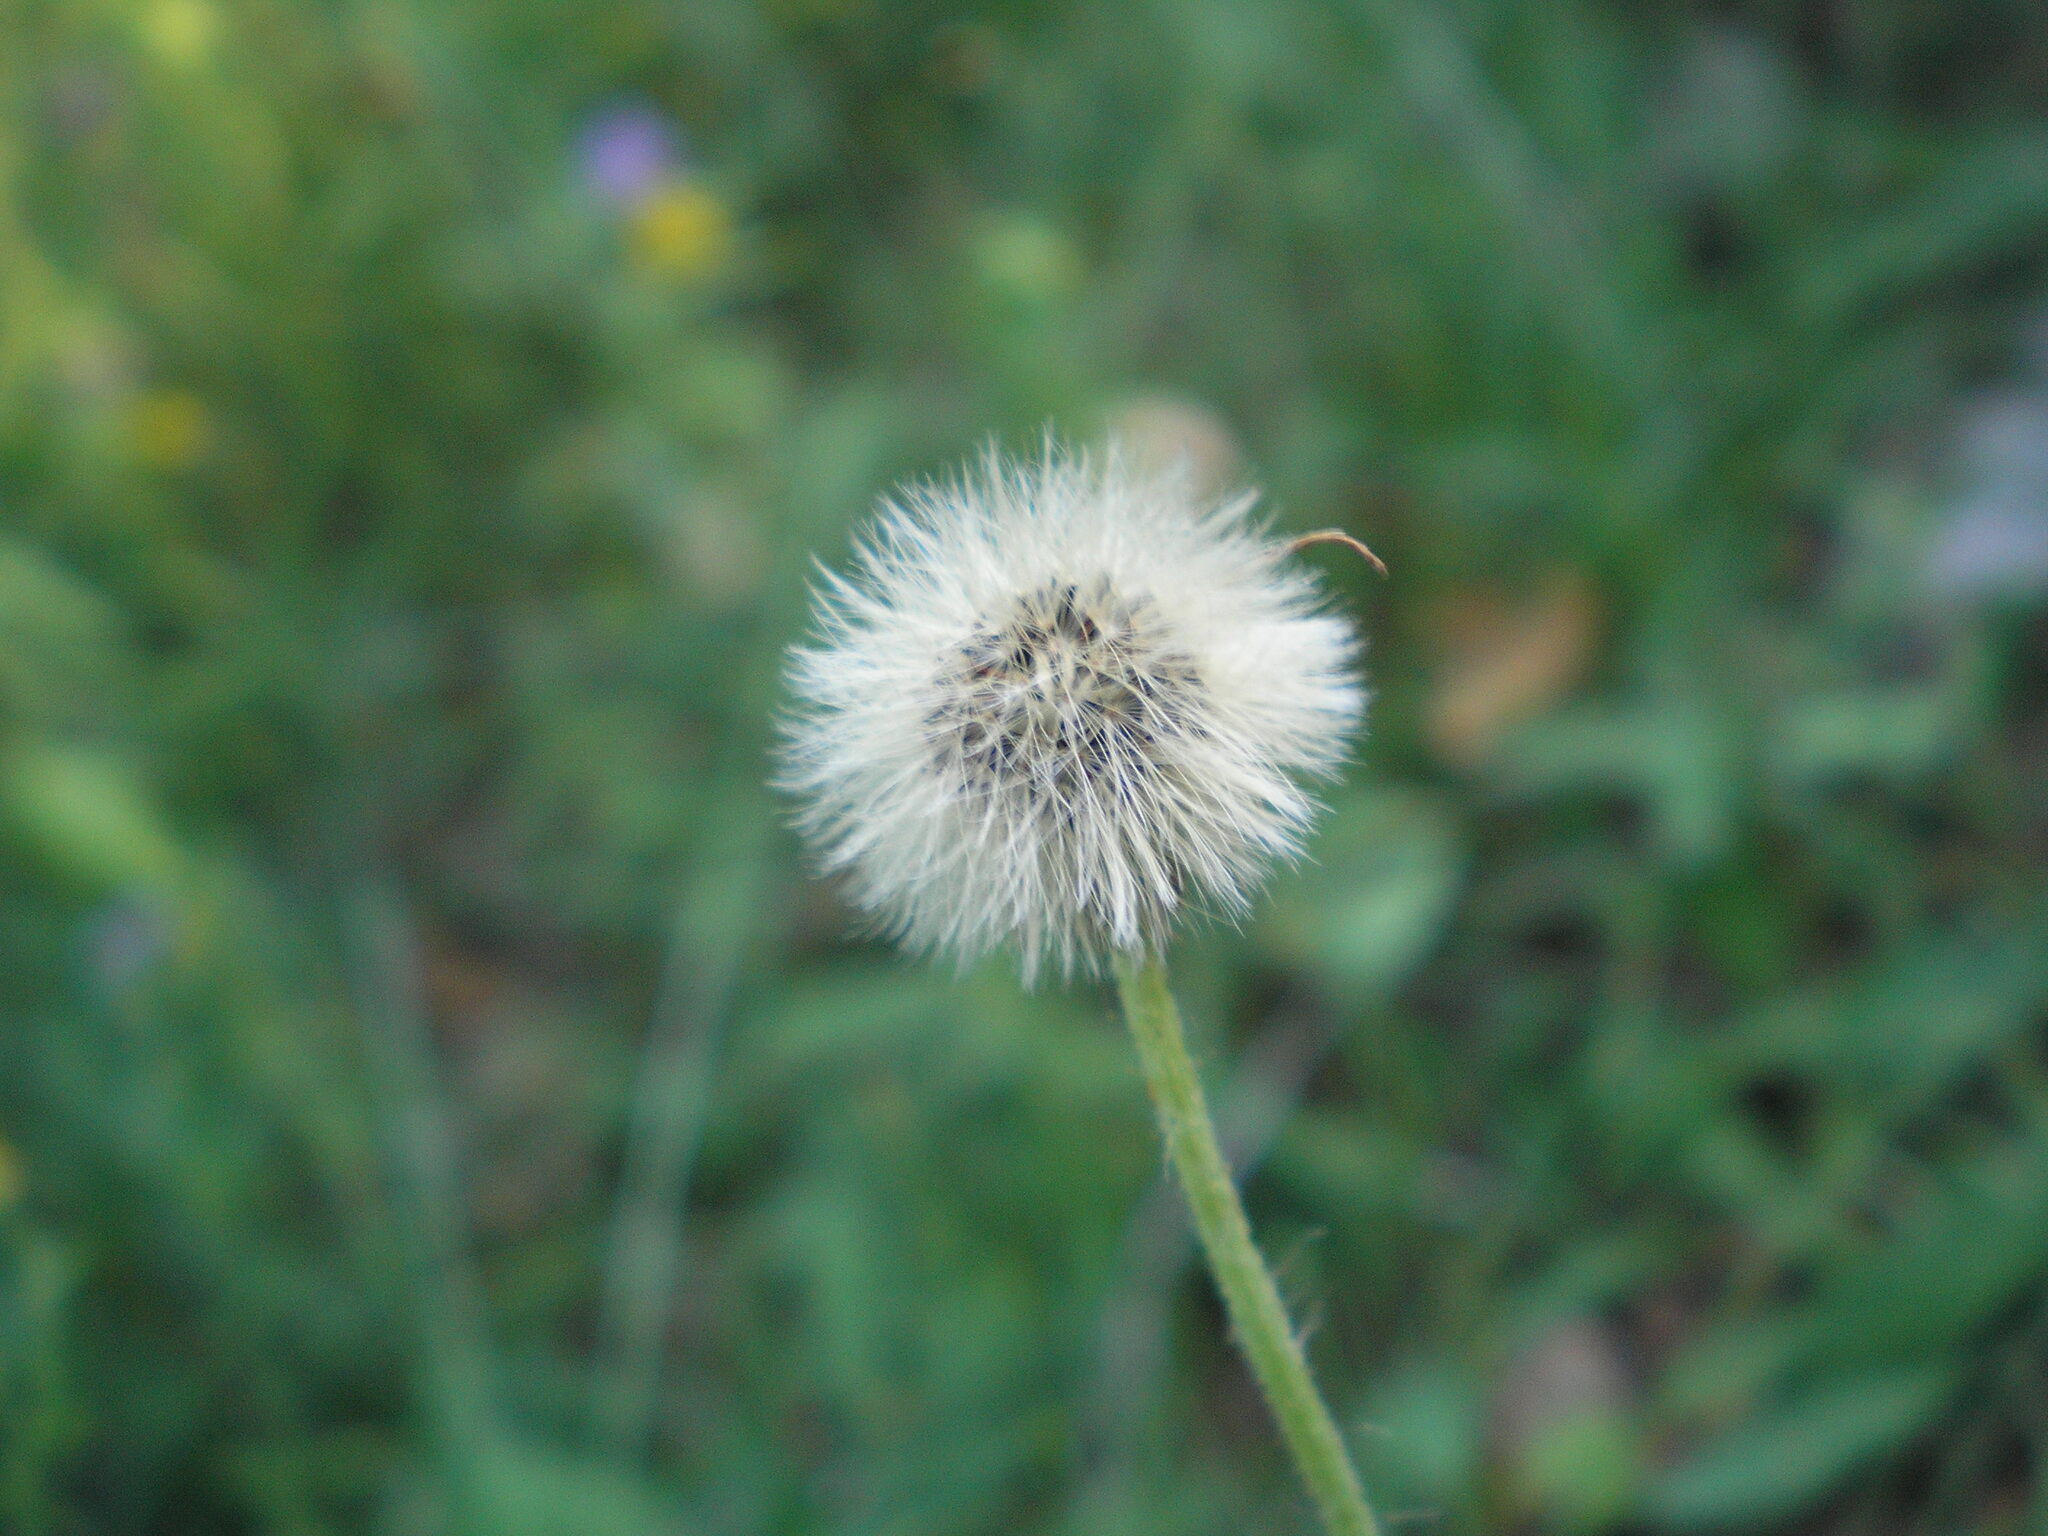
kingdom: Plantae
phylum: Tracheophyta
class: Magnoliopsida
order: Asterales
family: Asteraceae
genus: Pilosella
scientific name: Pilosella officinarum
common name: Mouse-ear hawkweed
